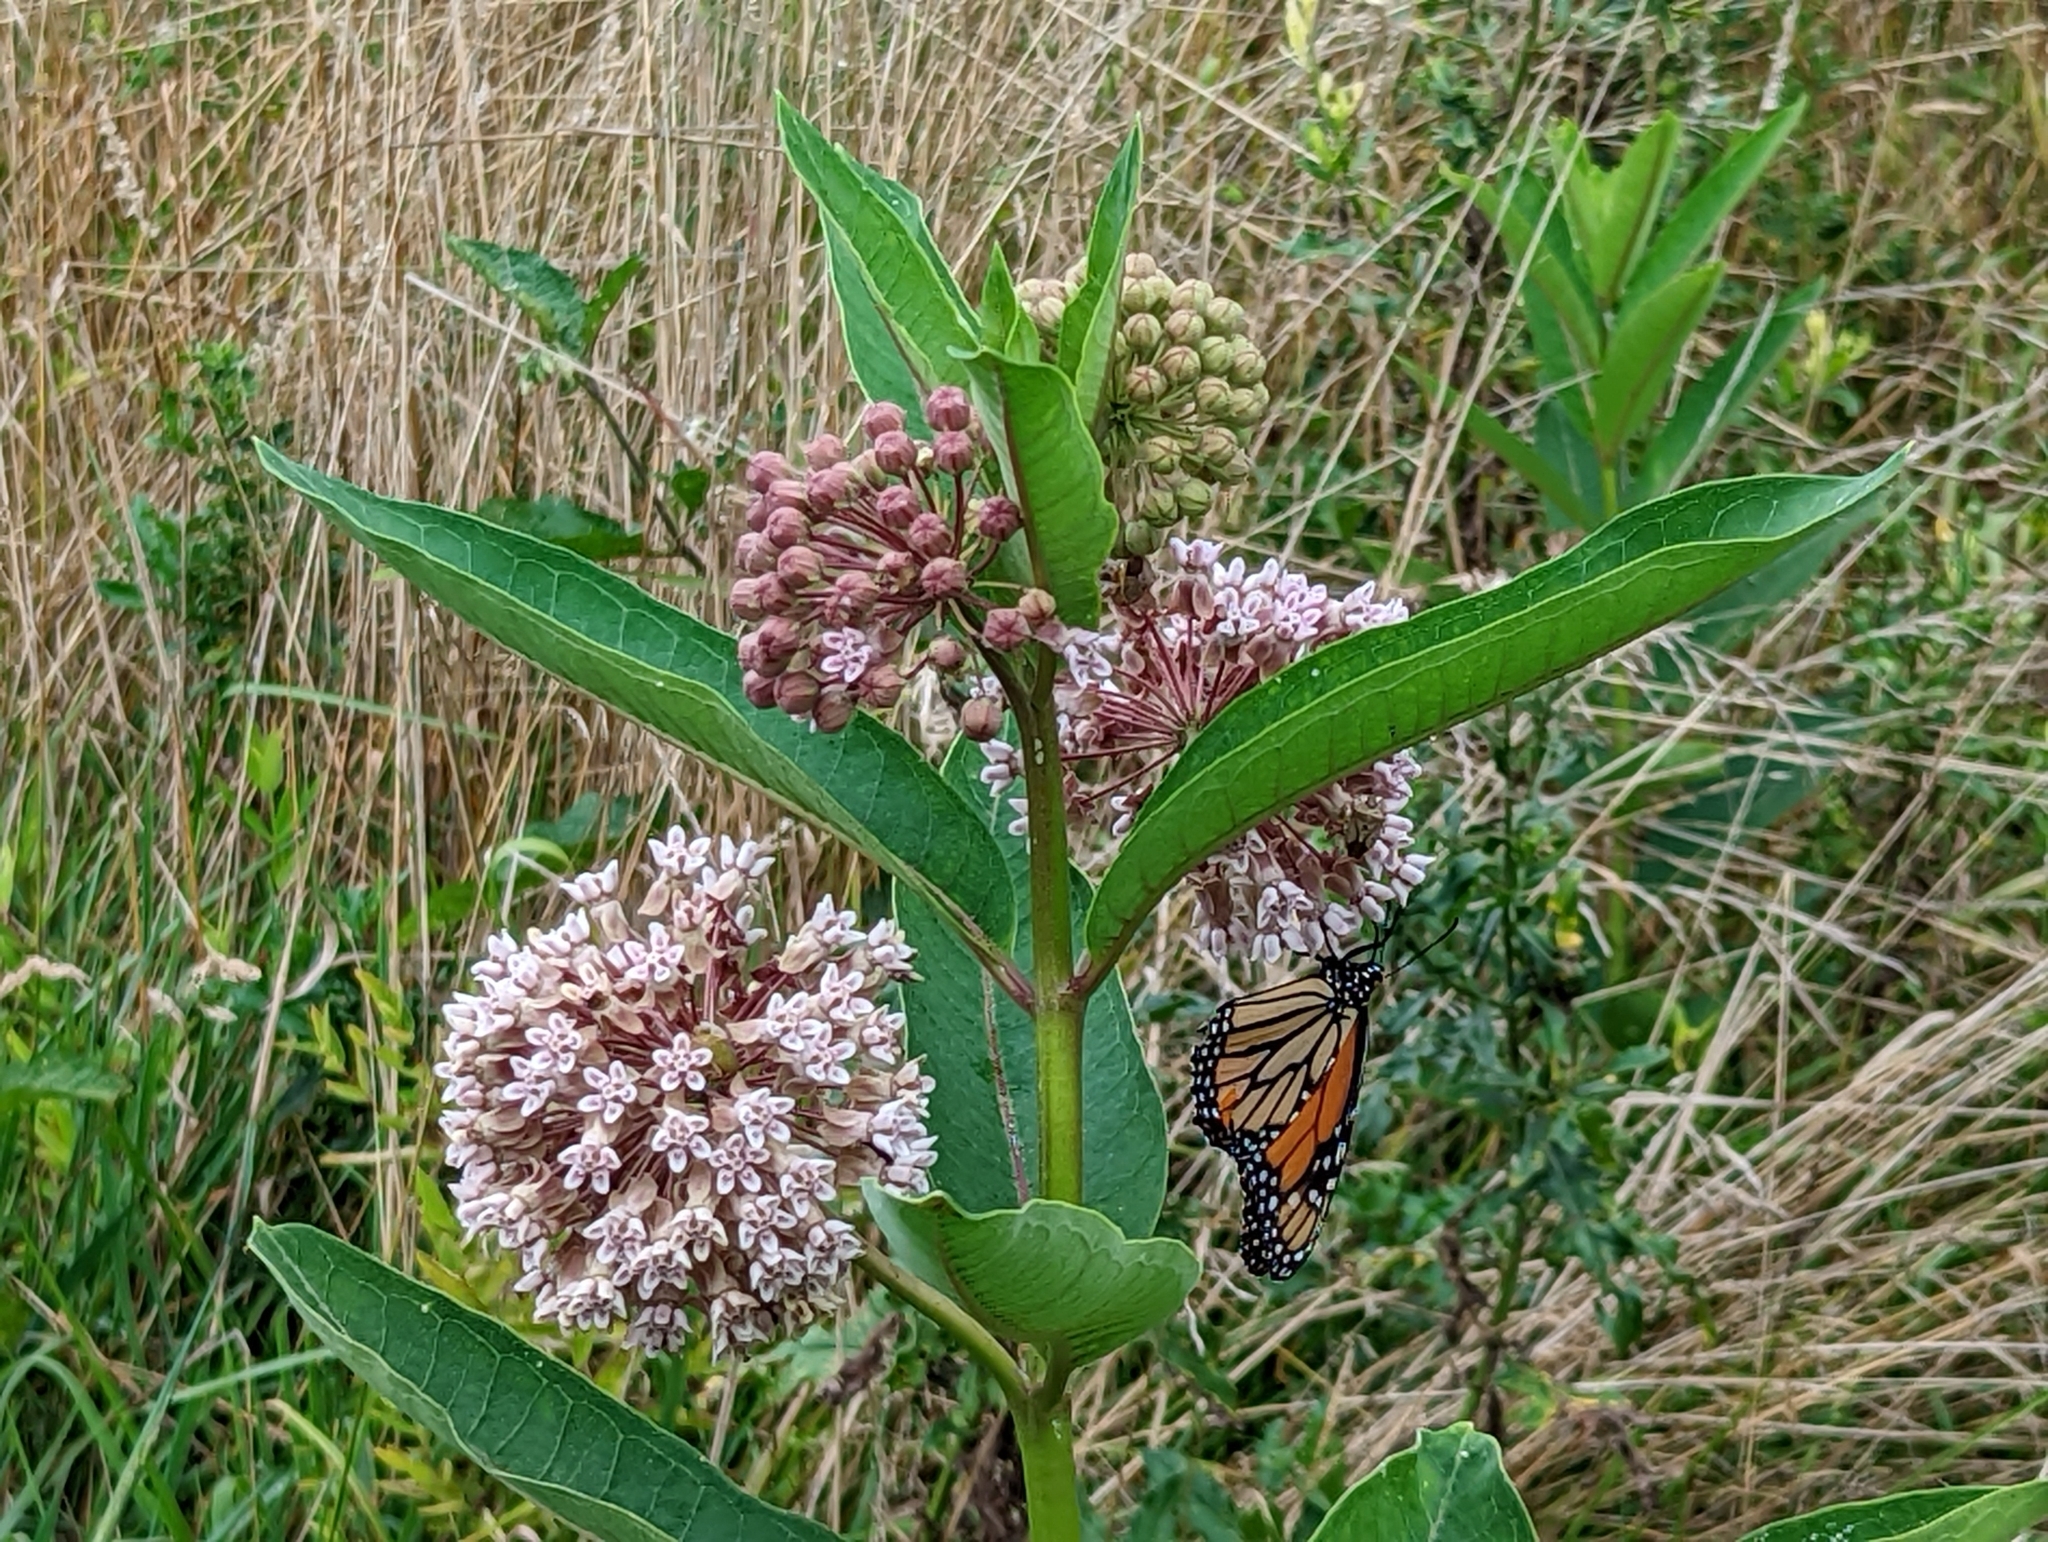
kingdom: Animalia
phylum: Arthropoda
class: Insecta
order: Lepidoptera
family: Nymphalidae
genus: Danaus
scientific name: Danaus plexippus
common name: Monarch
